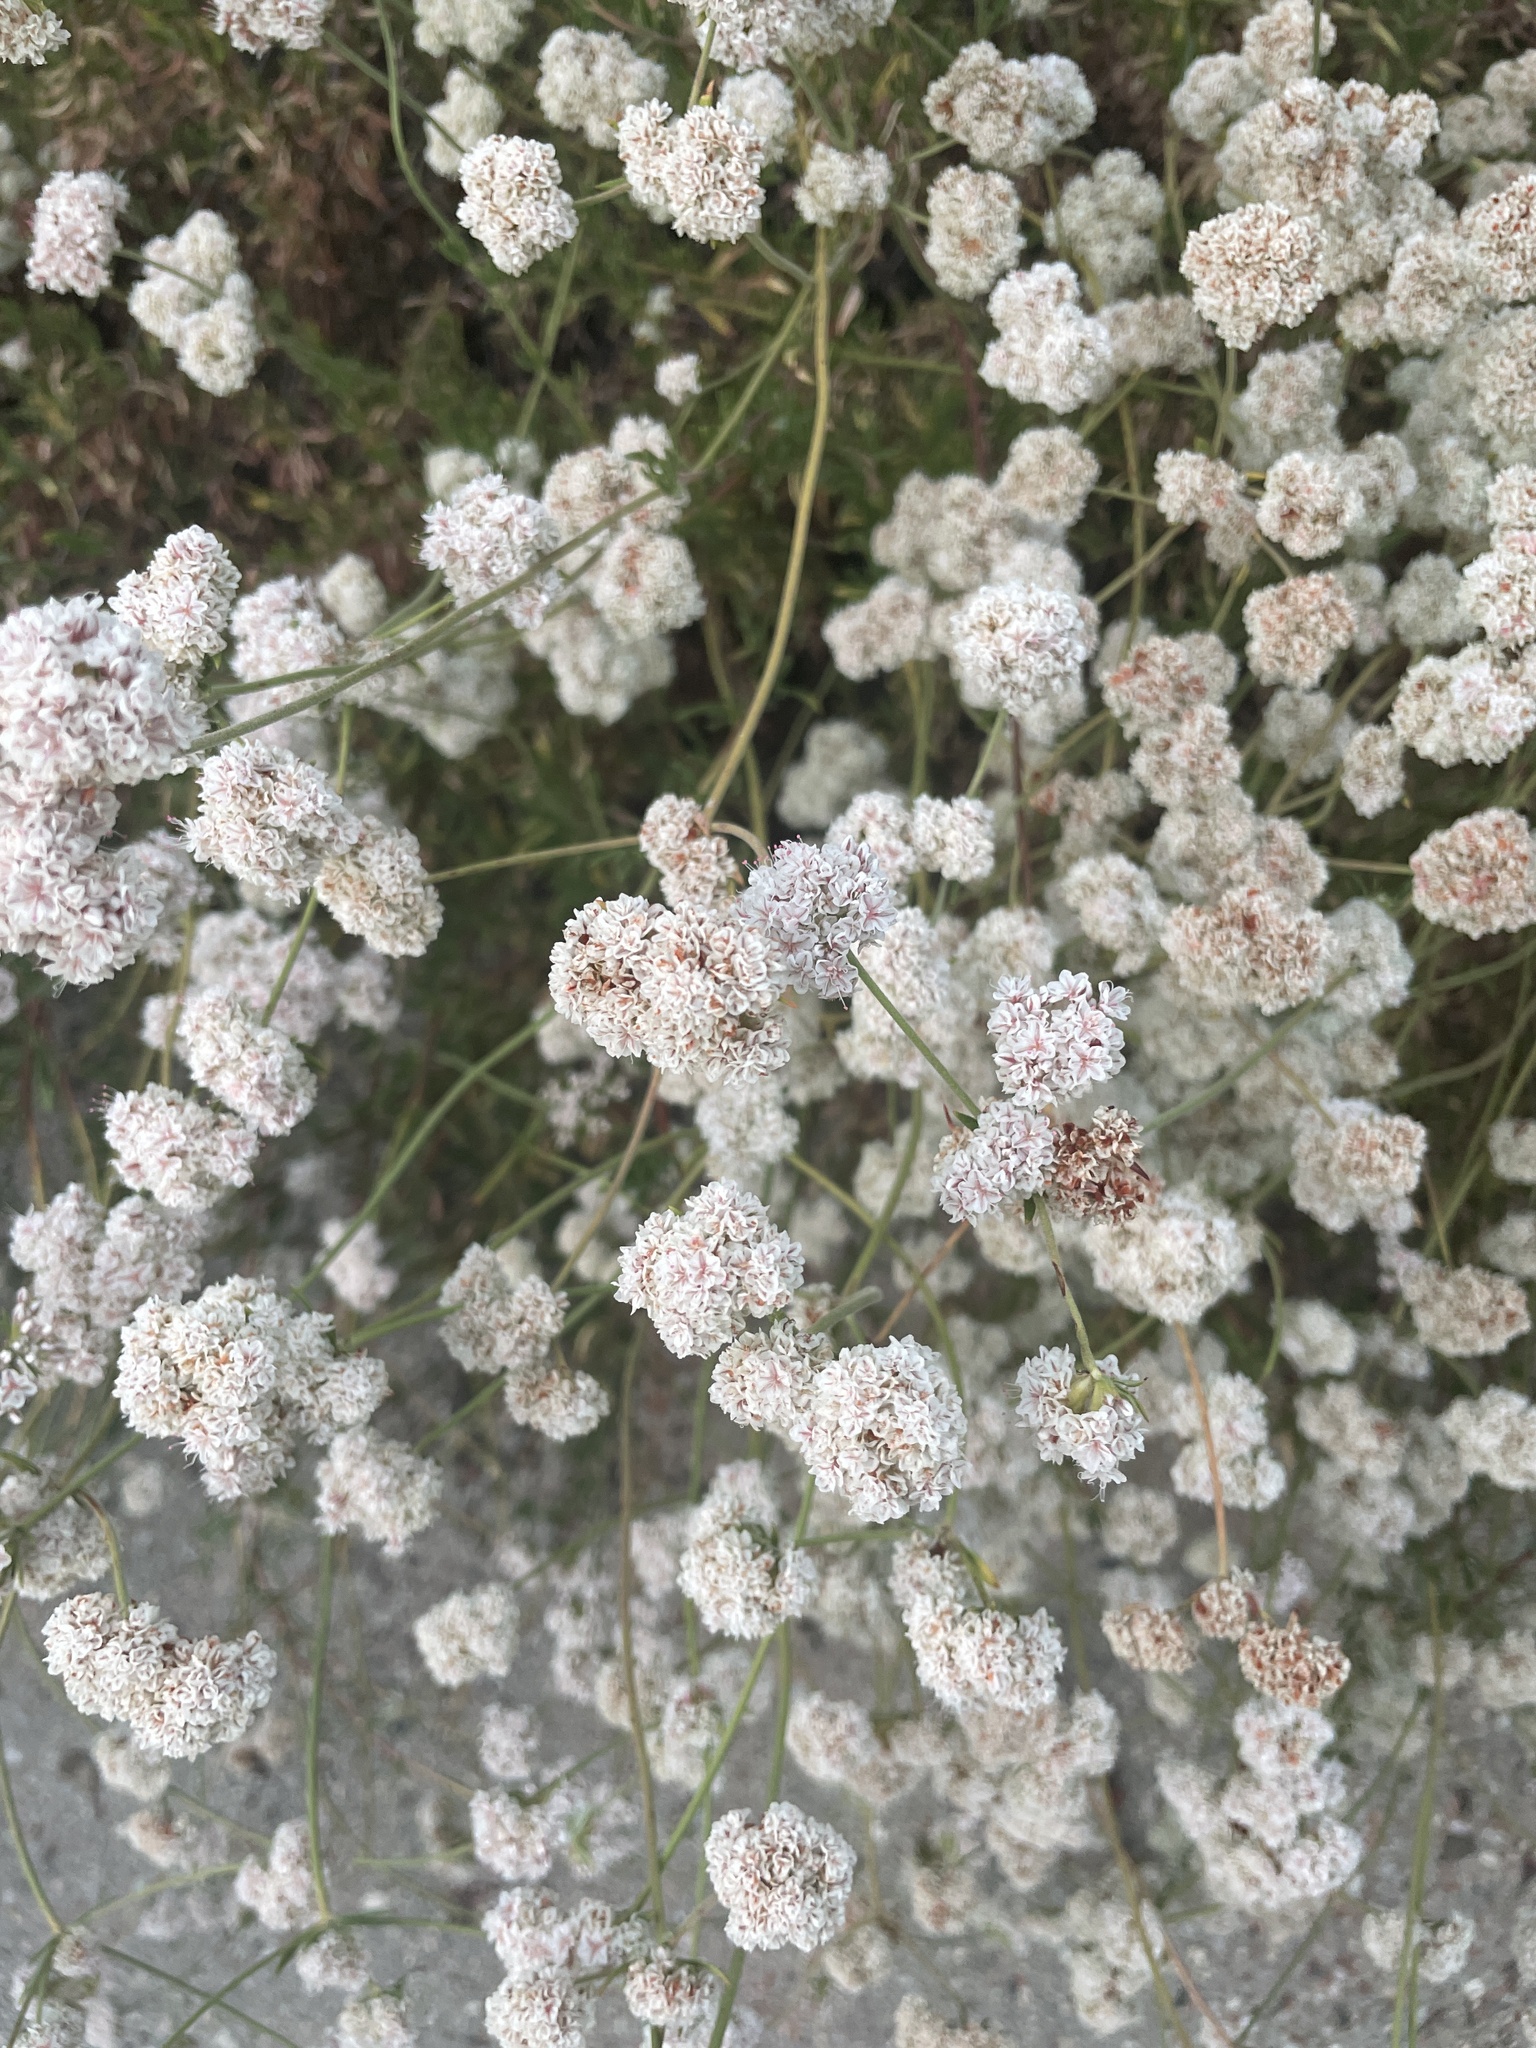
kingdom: Plantae
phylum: Tracheophyta
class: Magnoliopsida
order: Caryophyllales
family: Polygonaceae
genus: Eriogonum
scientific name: Eriogonum fasciculatum
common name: California wild buckwheat
